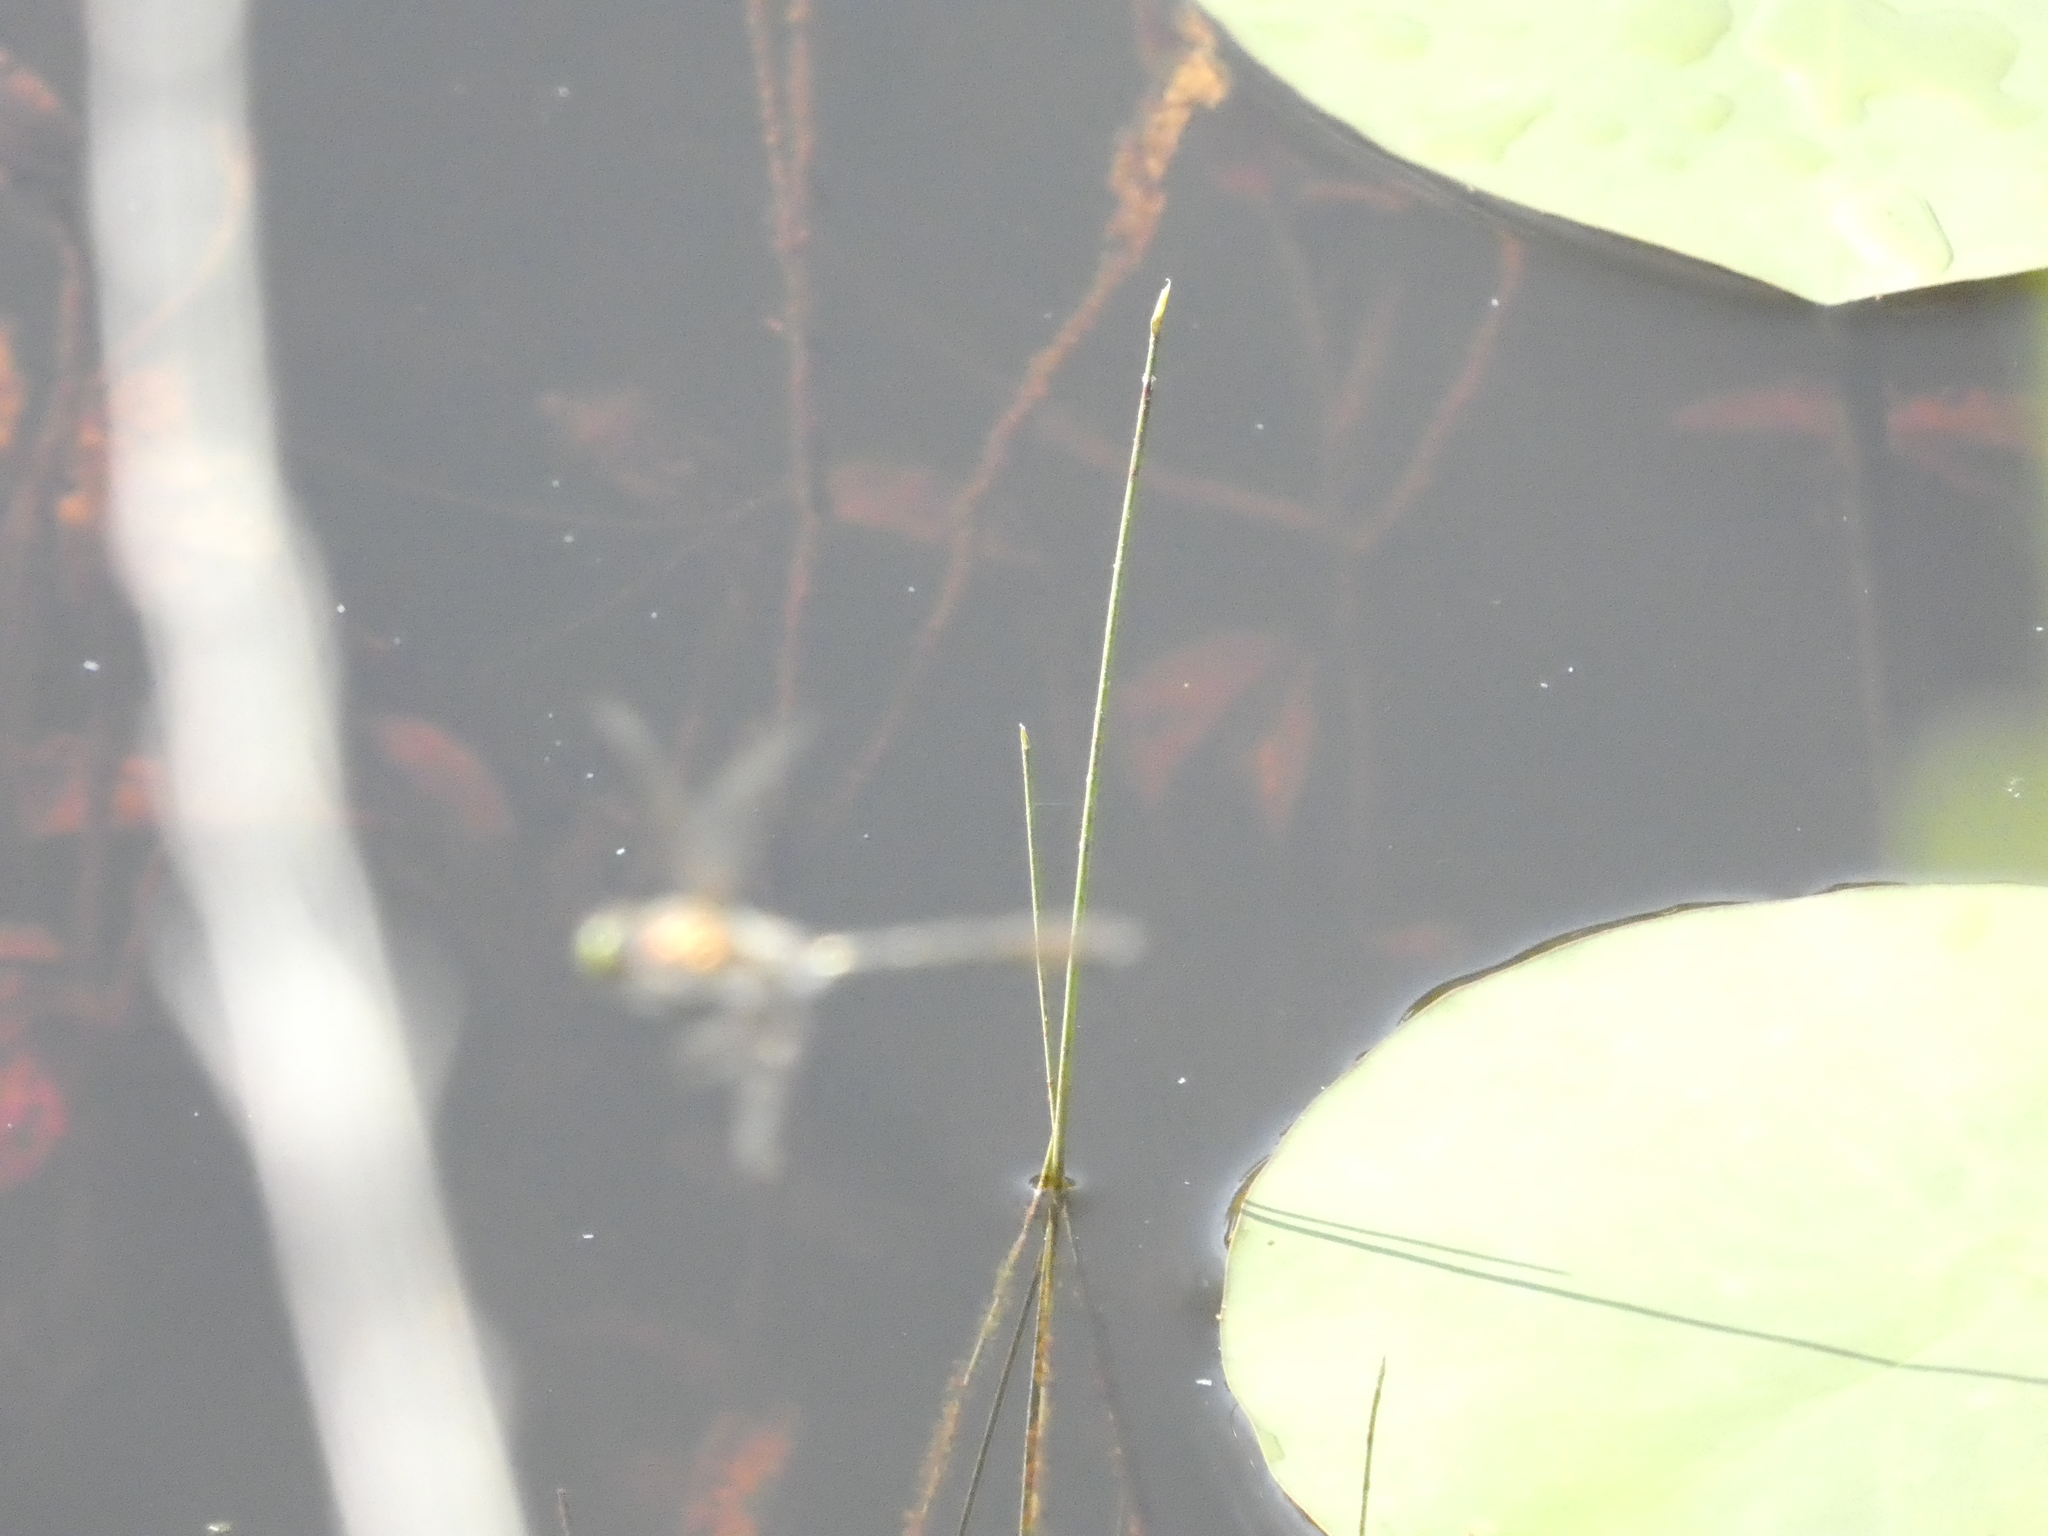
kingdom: Animalia
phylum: Arthropoda
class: Insecta
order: Odonata
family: Corduliidae
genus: Cordulia
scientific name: Cordulia aenea
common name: Downy emerald
